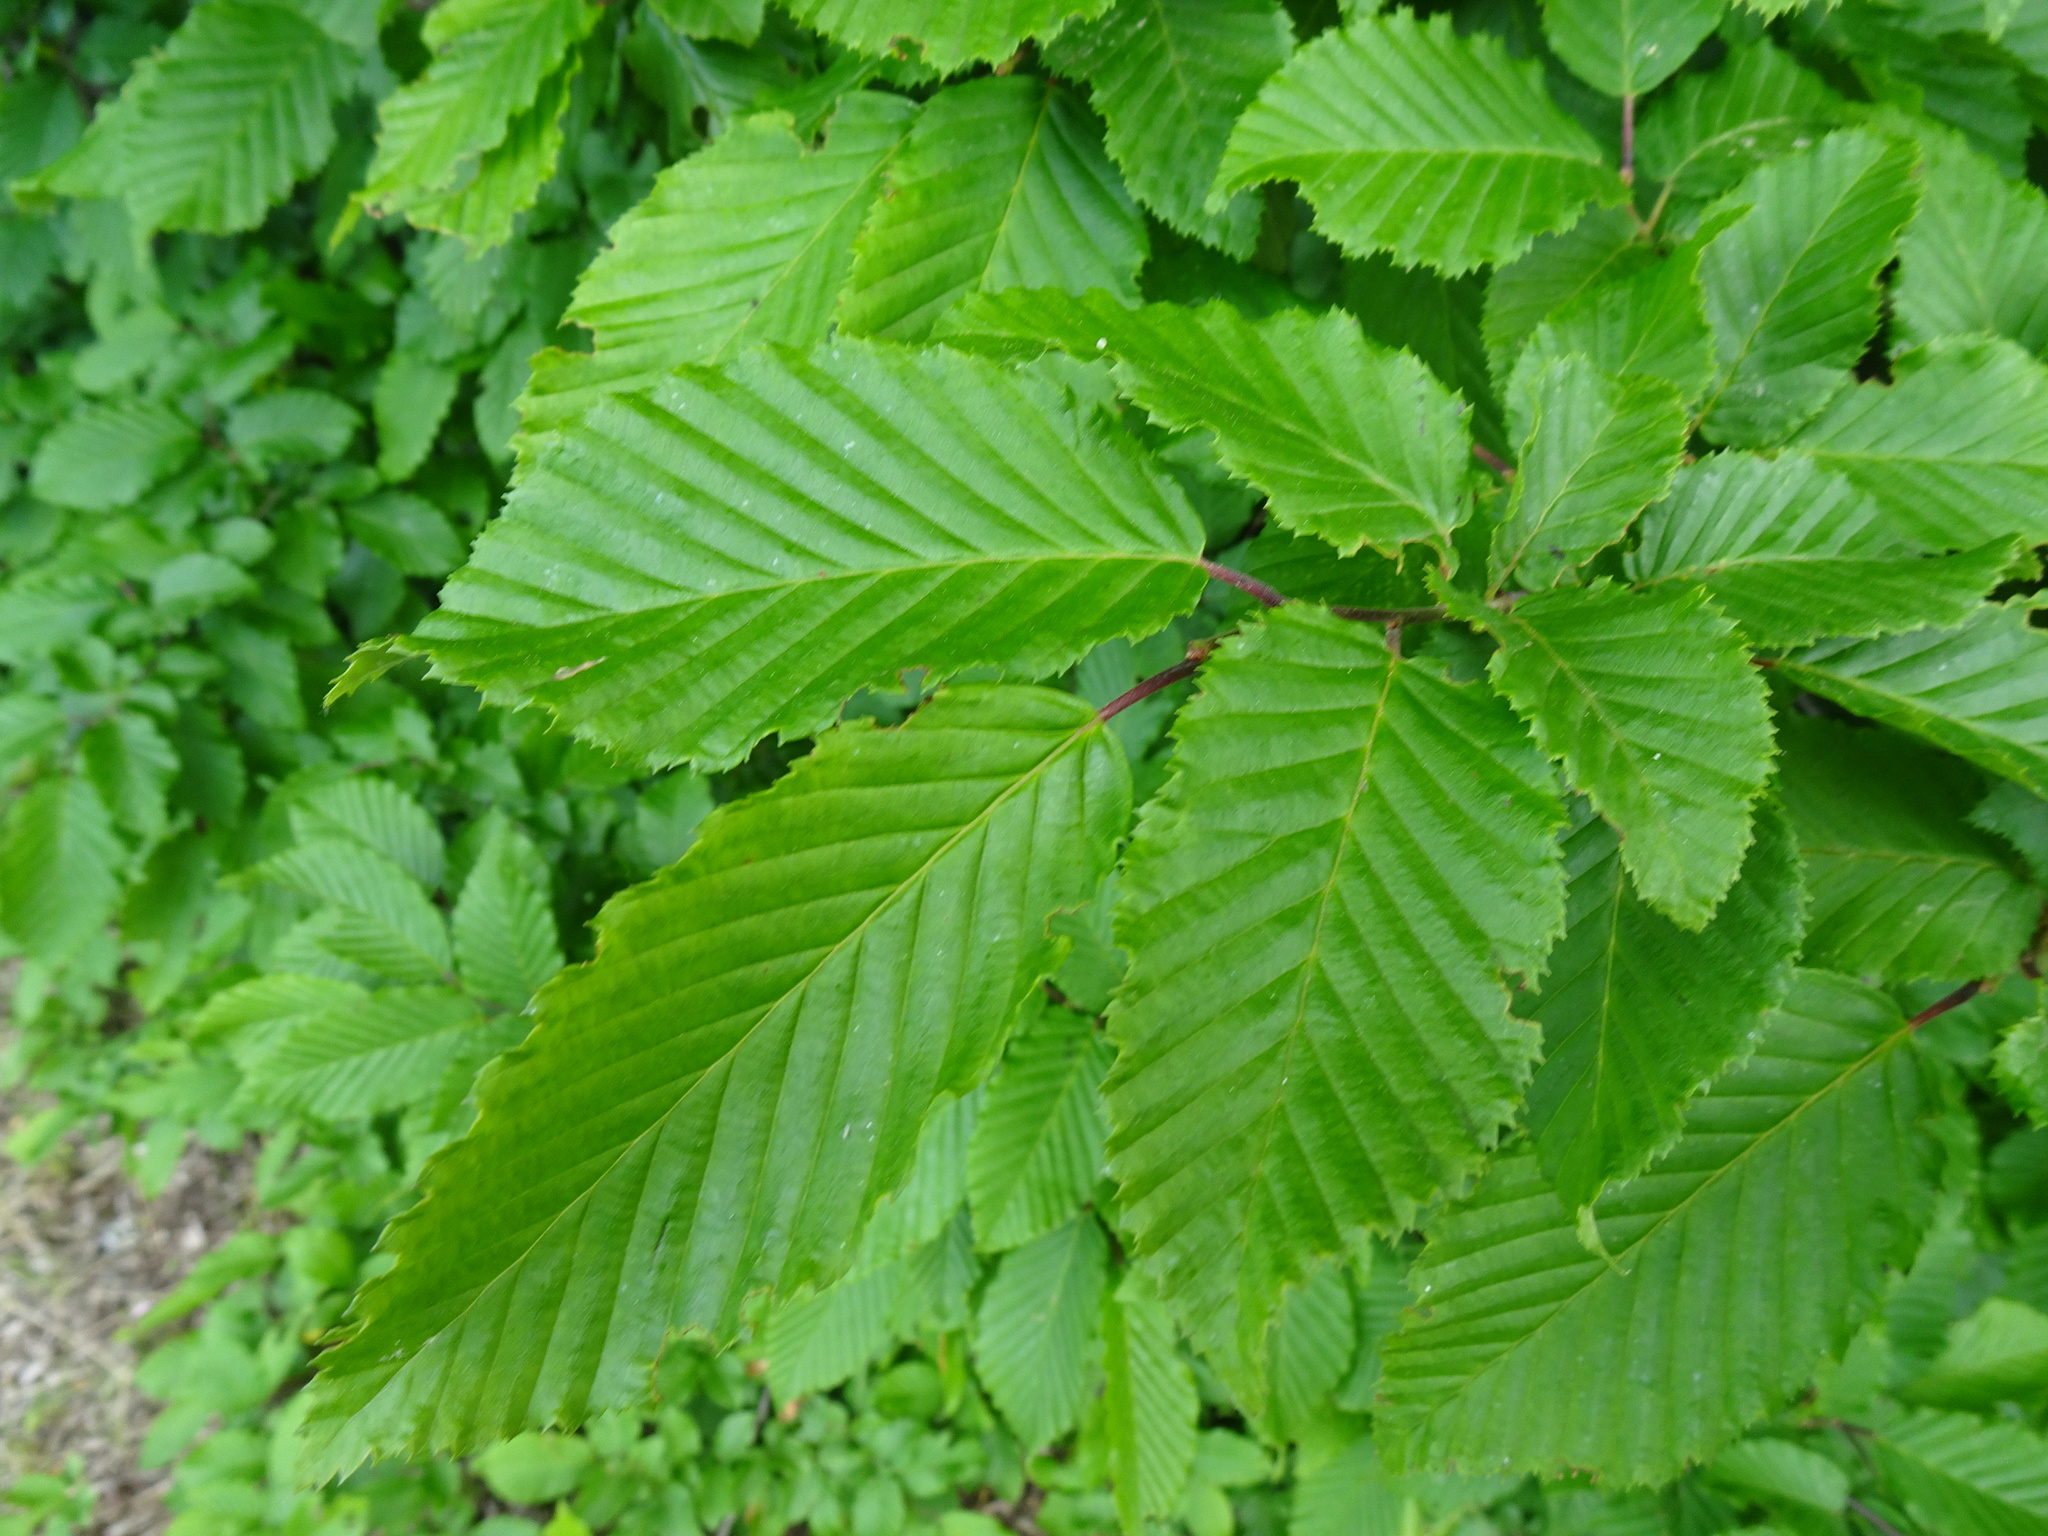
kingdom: Plantae
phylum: Tracheophyta
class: Magnoliopsida
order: Fagales
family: Betulaceae
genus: Carpinus
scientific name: Carpinus betulus
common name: Hornbeam
